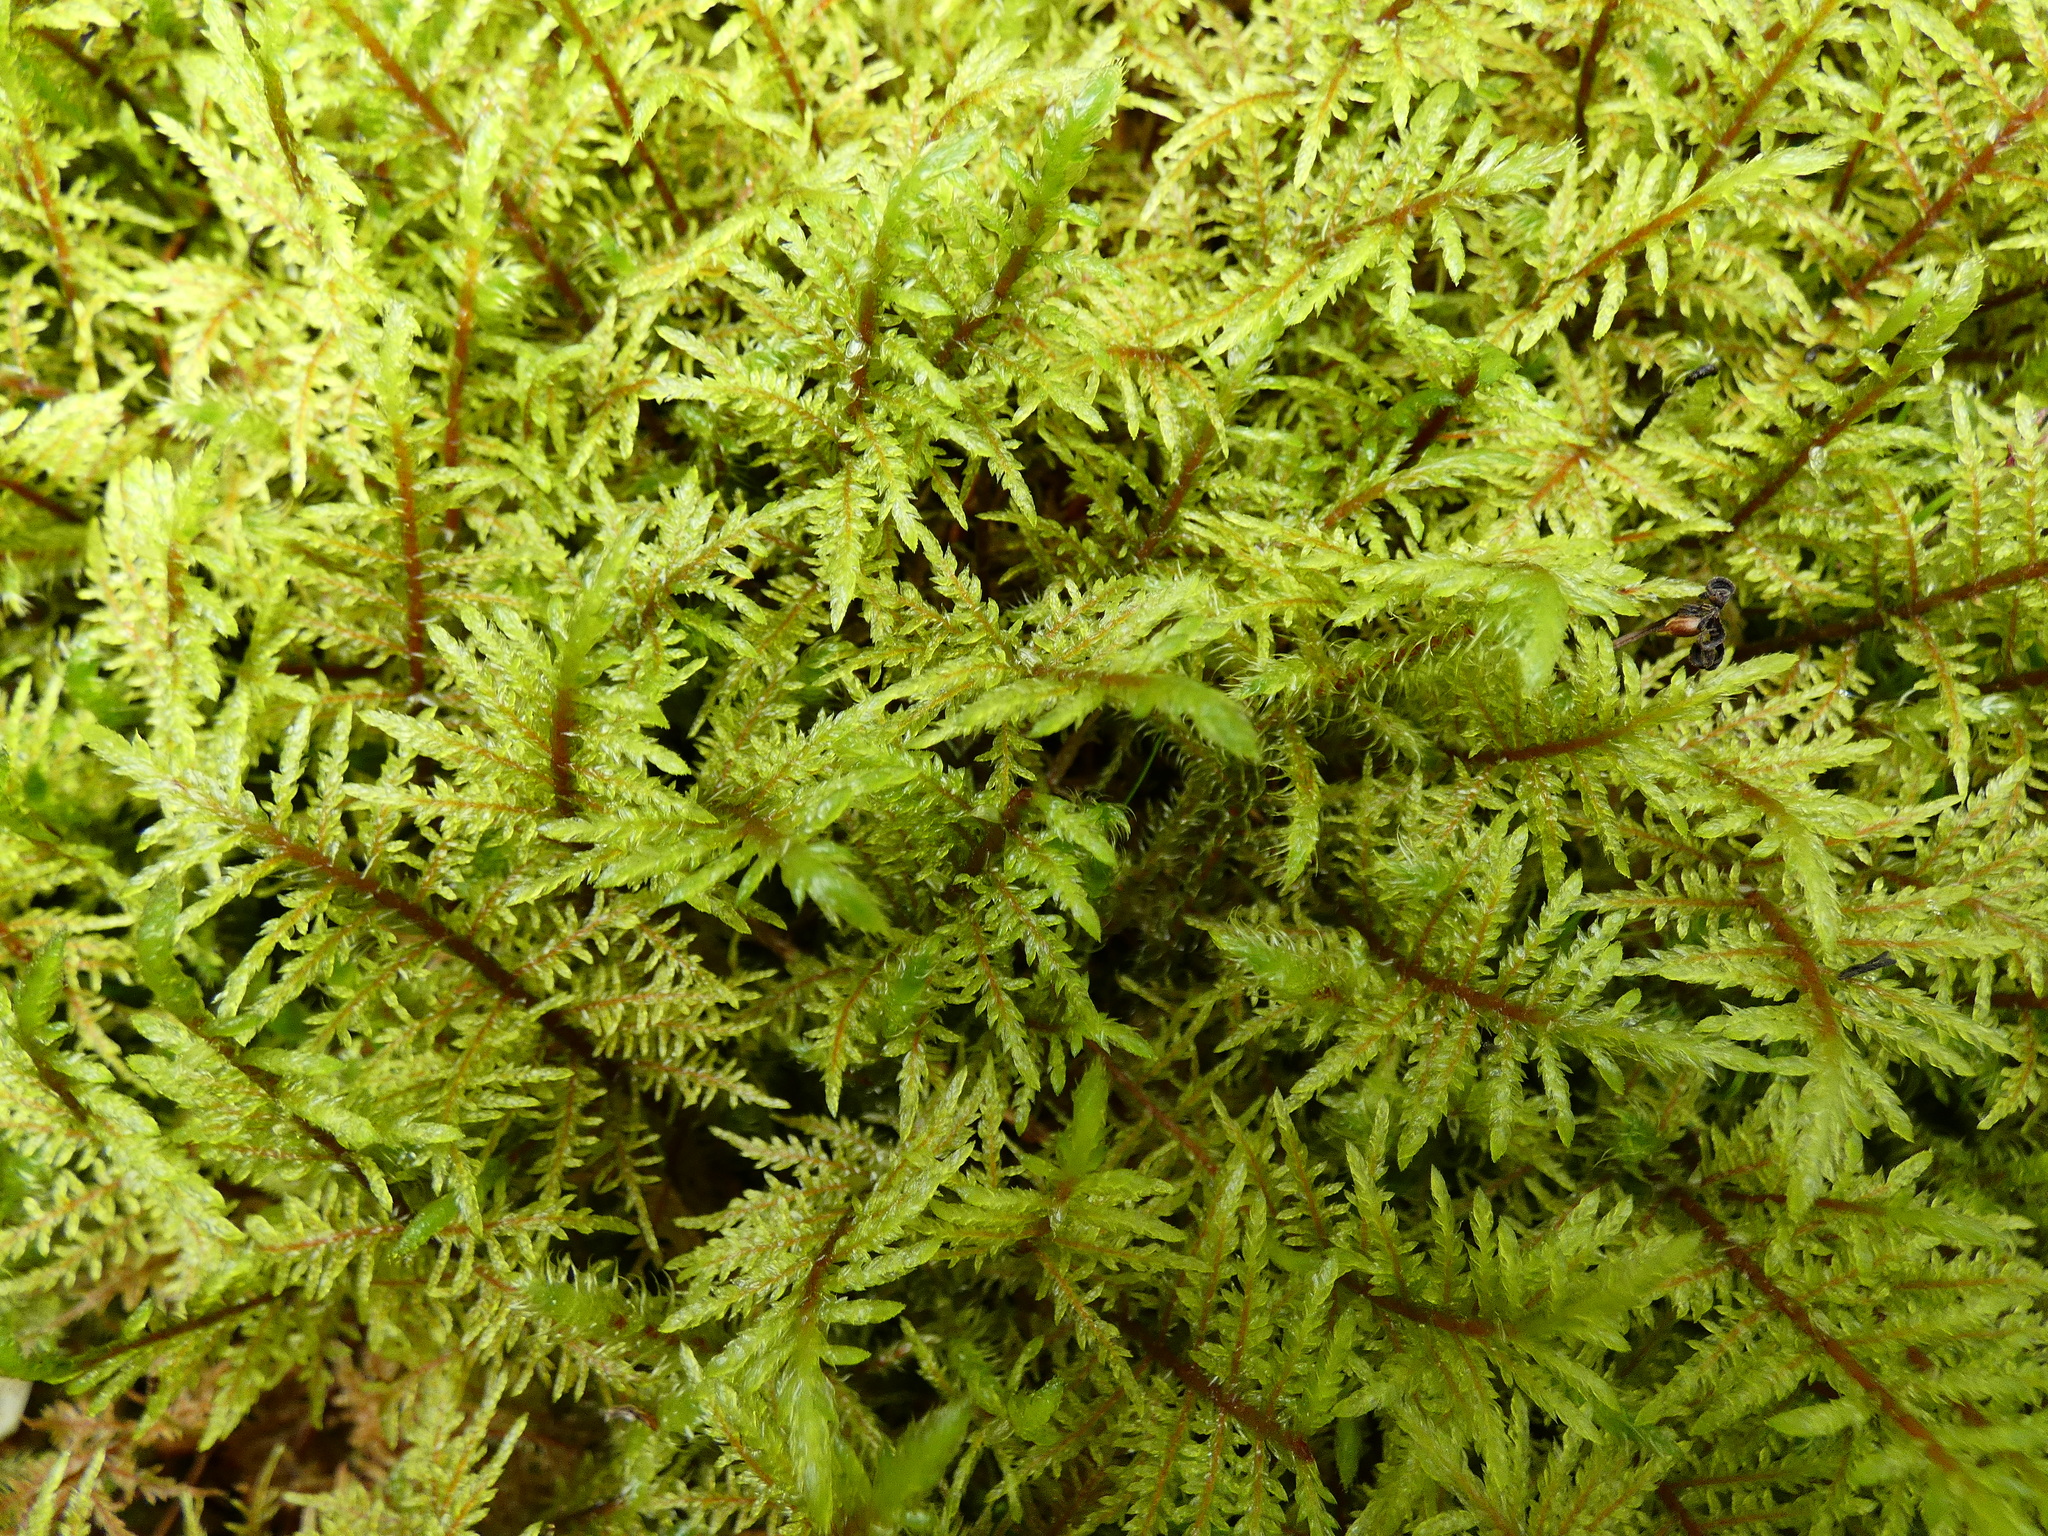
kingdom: Plantae
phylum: Bryophyta
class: Bryopsida
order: Hypnales
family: Hylocomiaceae
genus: Hylocomium
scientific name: Hylocomium splendens
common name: Stairstep moss
